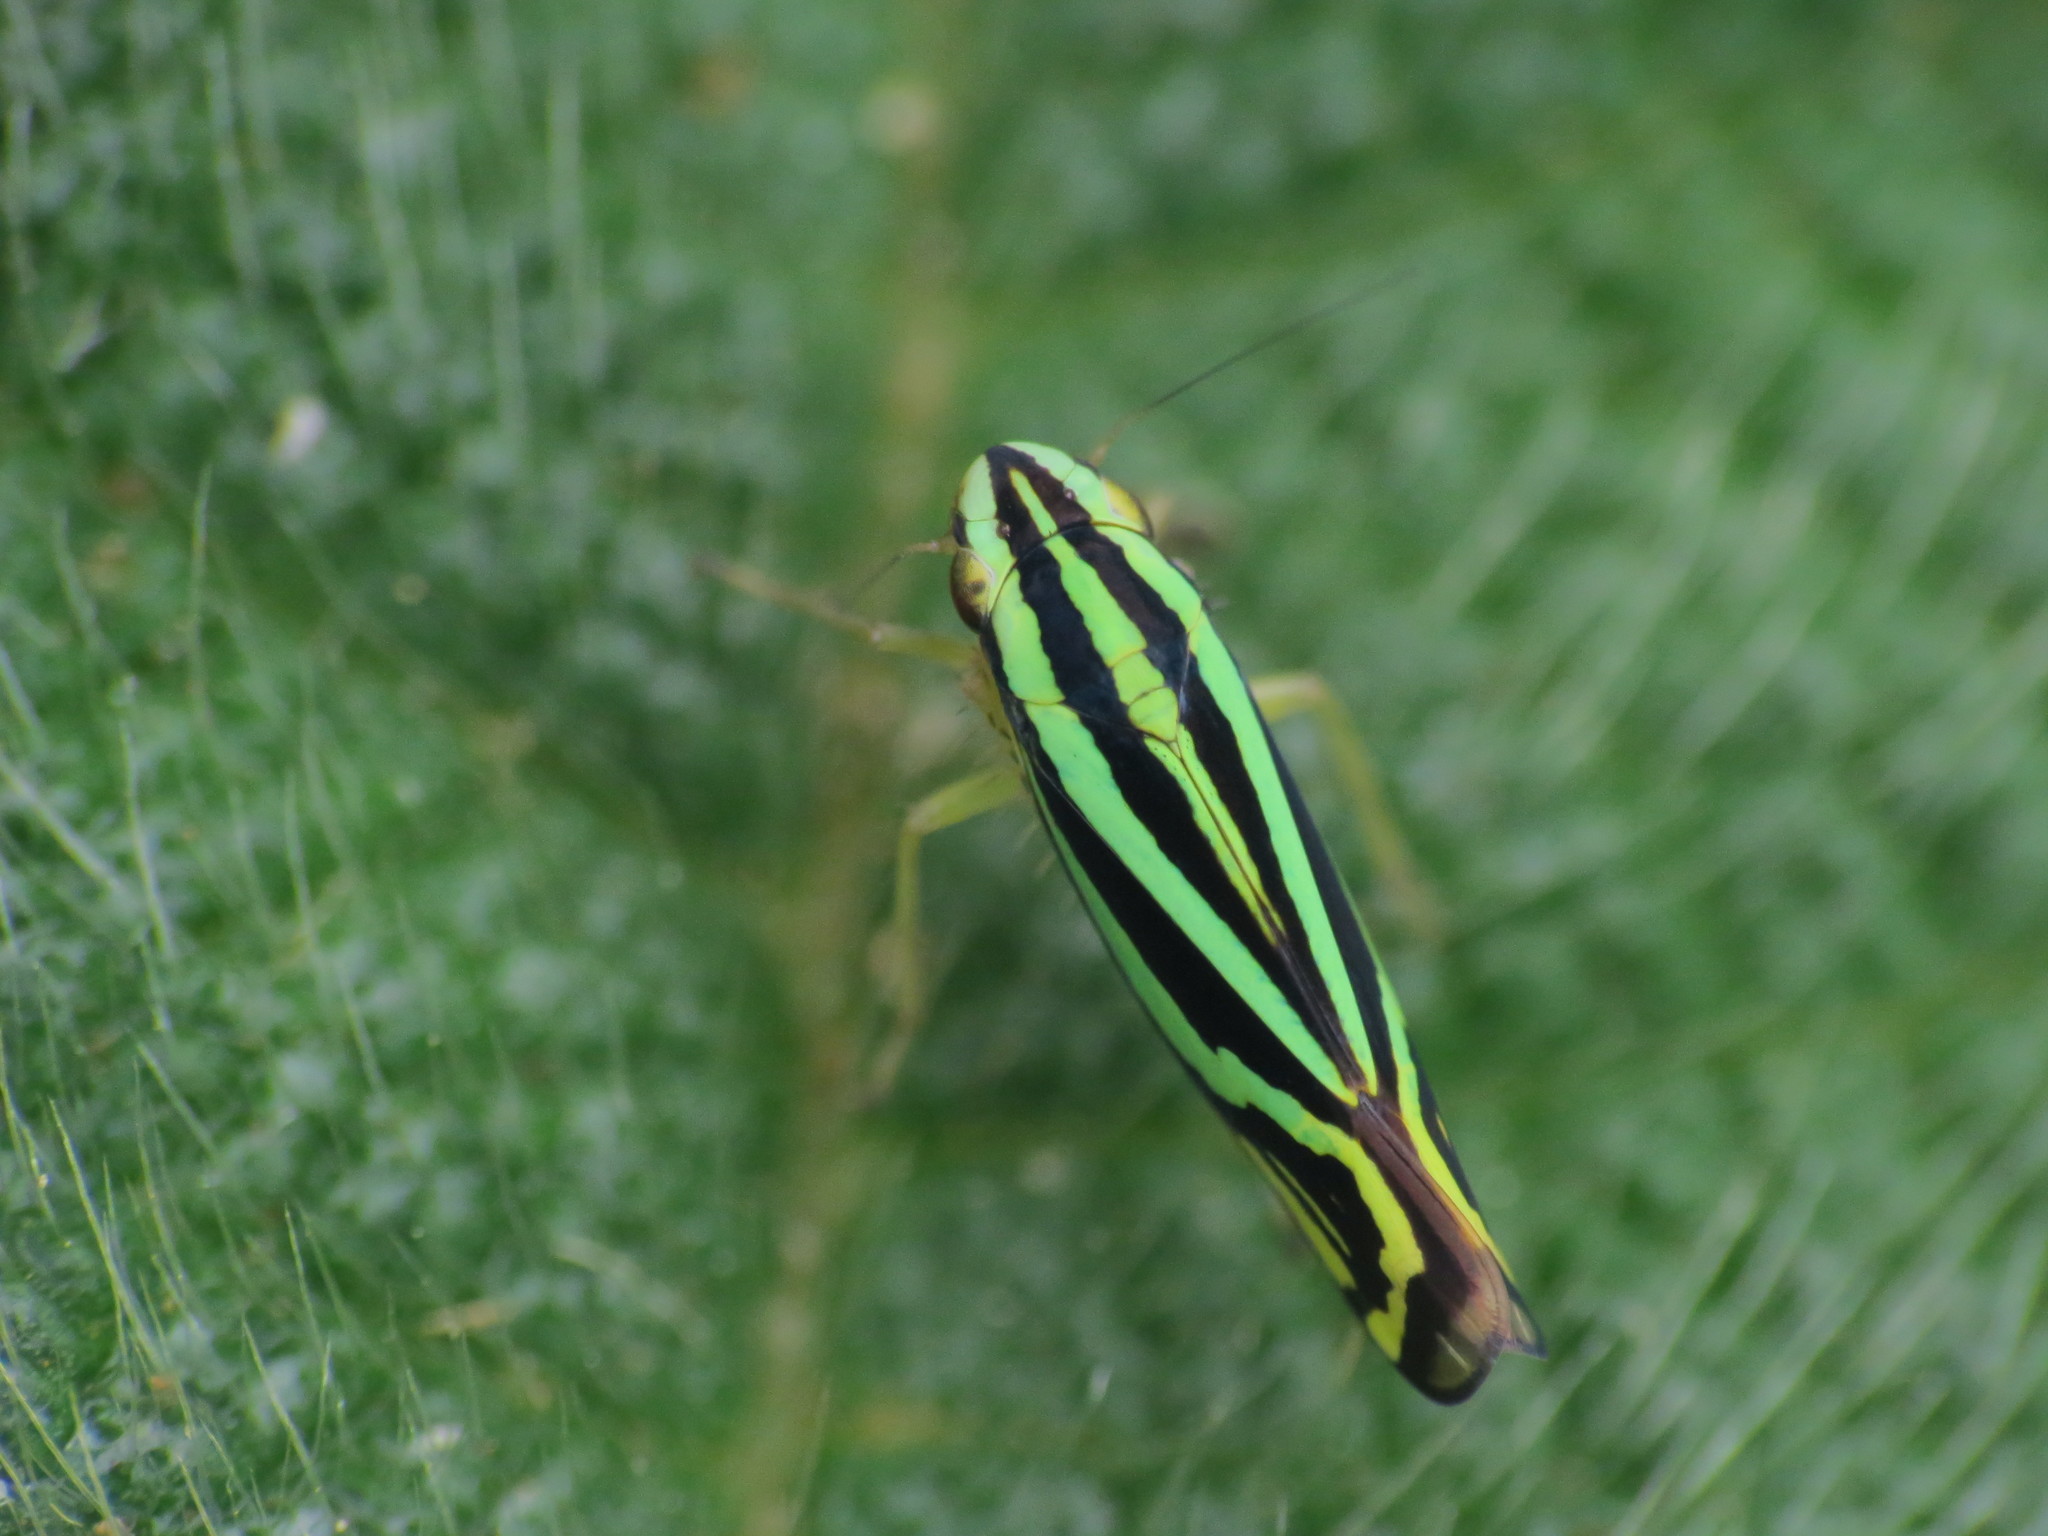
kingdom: Animalia
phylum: Arthropoda
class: Insecta
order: Hemiptera
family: Cicadellidae
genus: Sibovia
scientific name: Sibovia sagata
